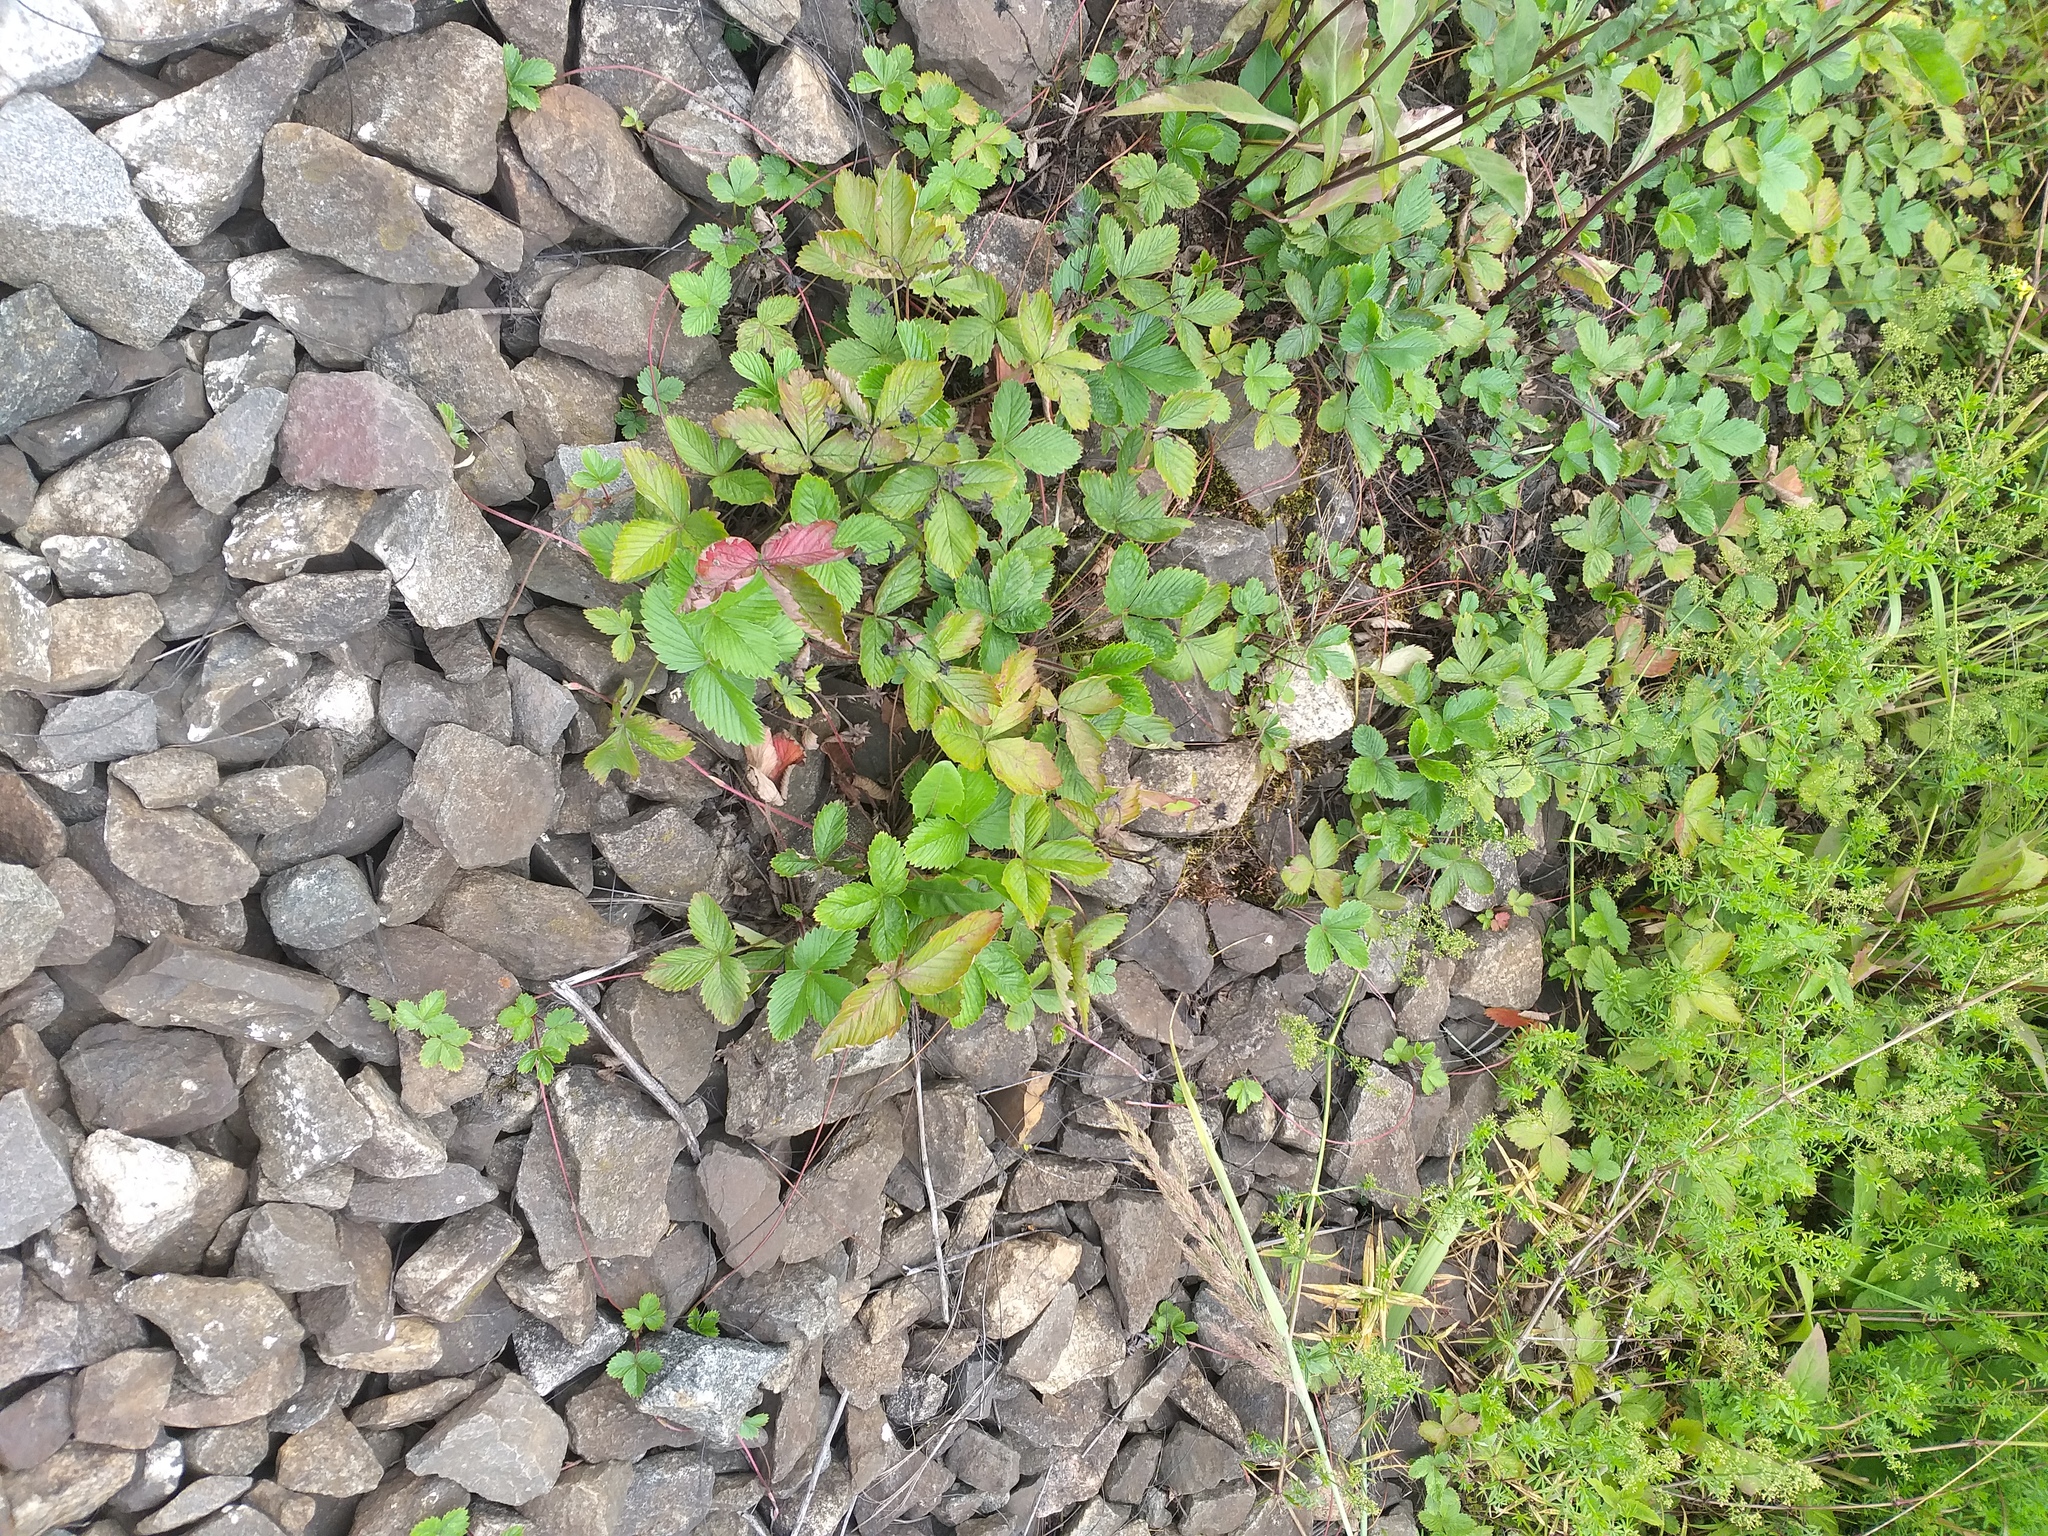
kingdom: Plantae
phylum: Tracheophyta
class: Magnoliopsida
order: Rosales
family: Rosaceae
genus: Fragaria
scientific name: Fragaria vesca
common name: Wild strawberry
